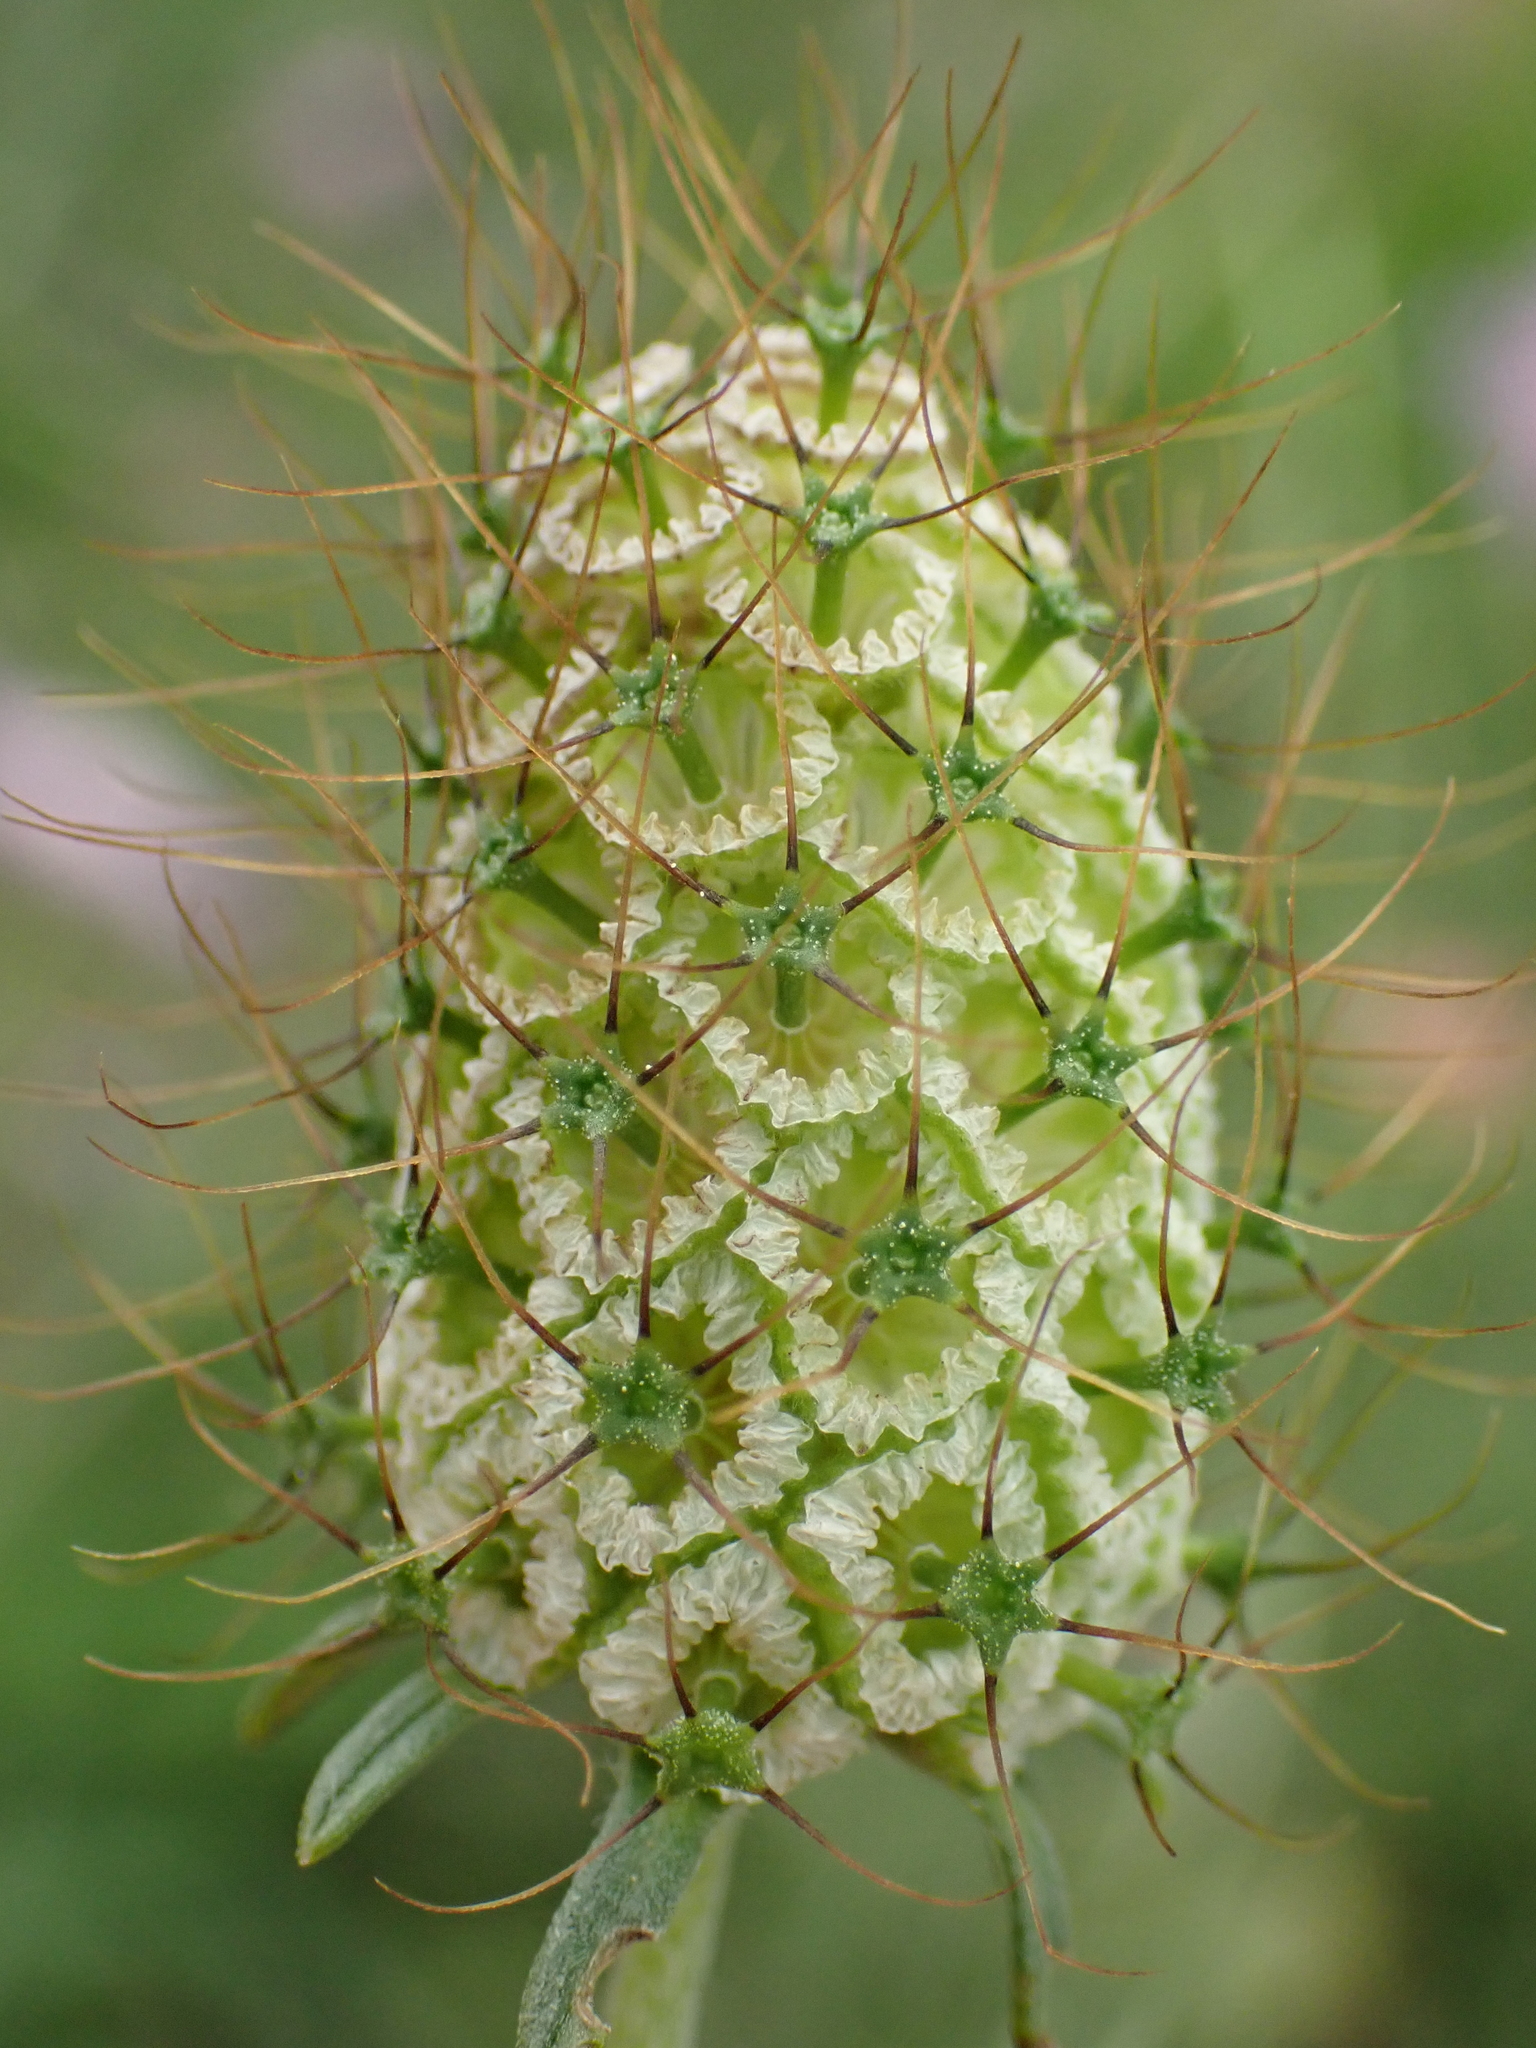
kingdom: Plantae
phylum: Tracheophyta
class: Magnoliopsida
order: Dipsacales
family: Caprifoliaceae
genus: Scabiosa
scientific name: Scabiosa columbaria
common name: Small scabious
